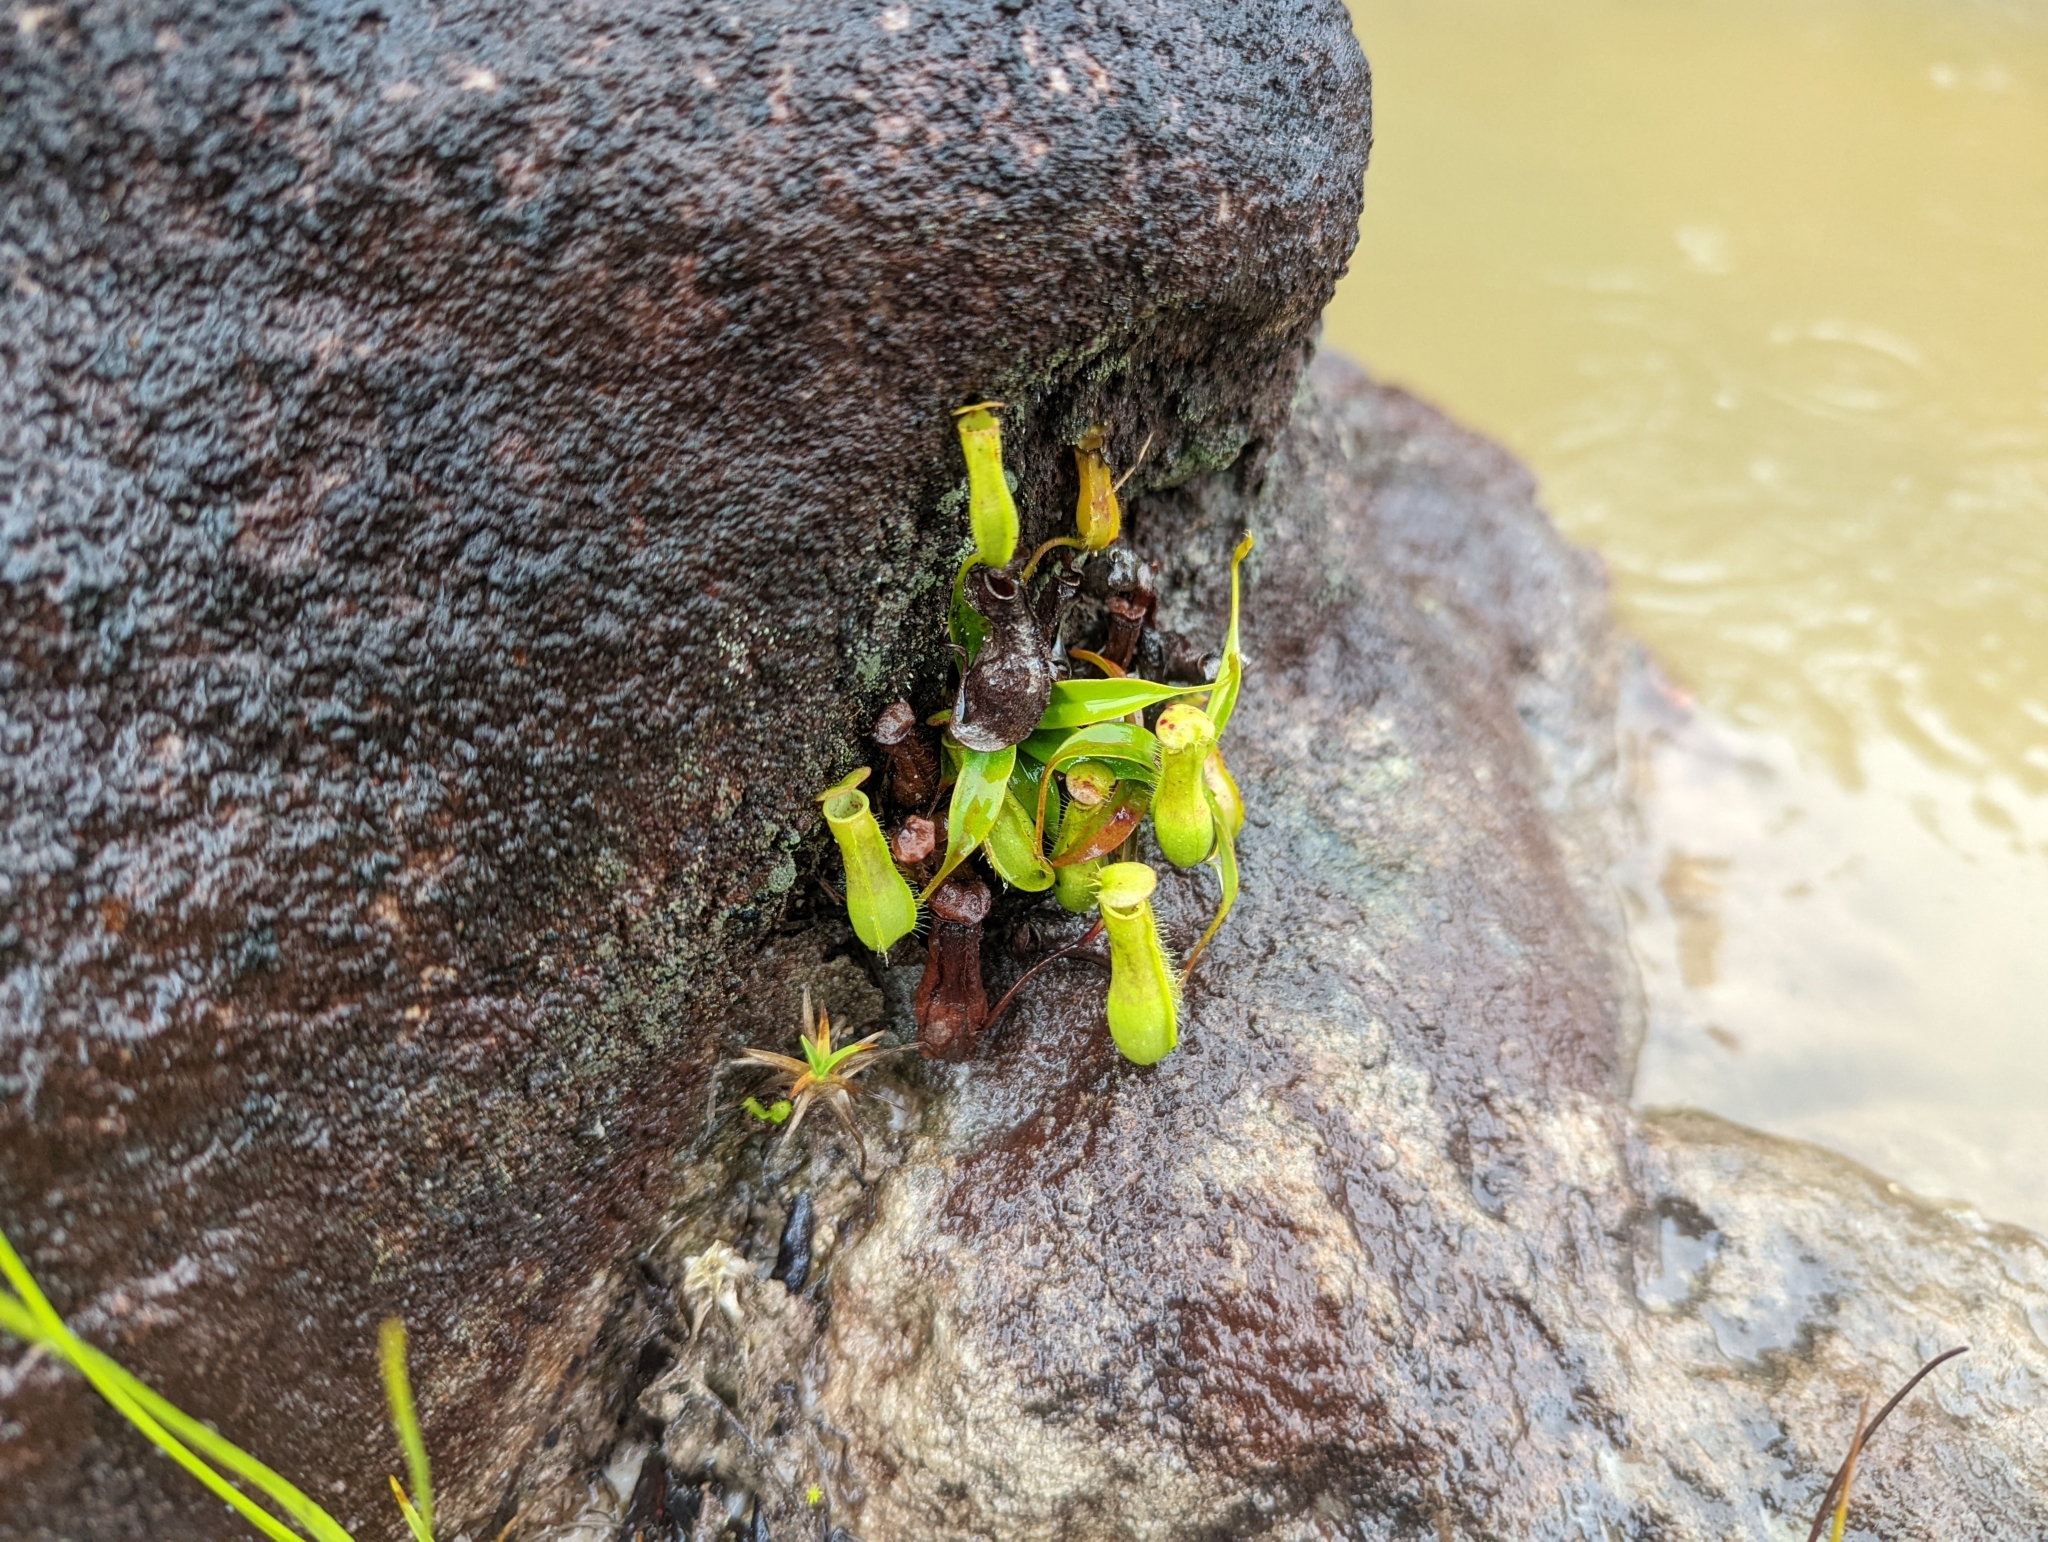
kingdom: Plantae
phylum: Tracheophyta
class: Magnoliopsida
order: Caryophyllales
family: Nepenthaceae
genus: Nepenthes
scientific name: Nepenthes gracilis
